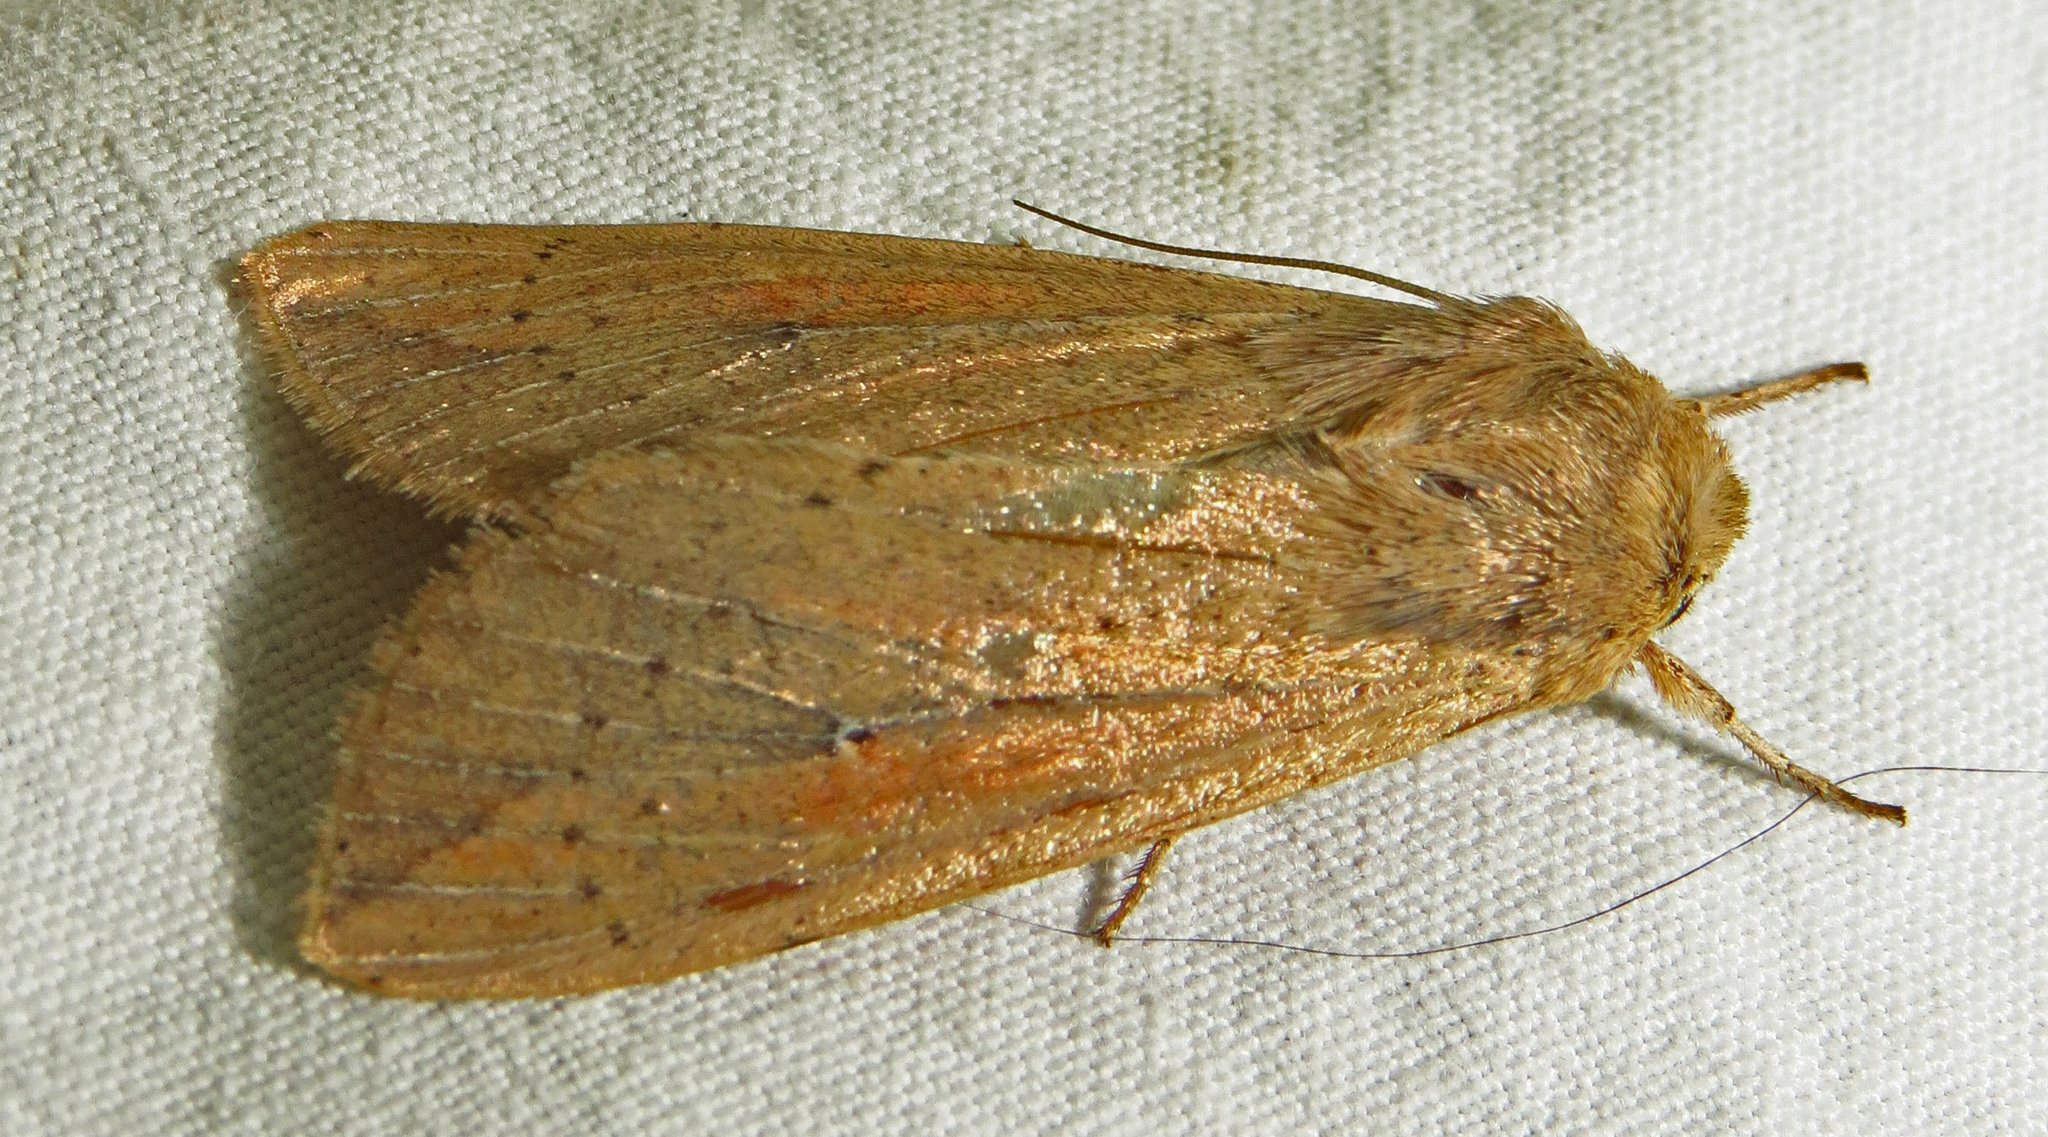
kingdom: Animalia
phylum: Arthropoda
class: Insecta
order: Lepidoptera
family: Noctuidae
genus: Mythimna
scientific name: Mythimna unipuncta
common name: White-speck
